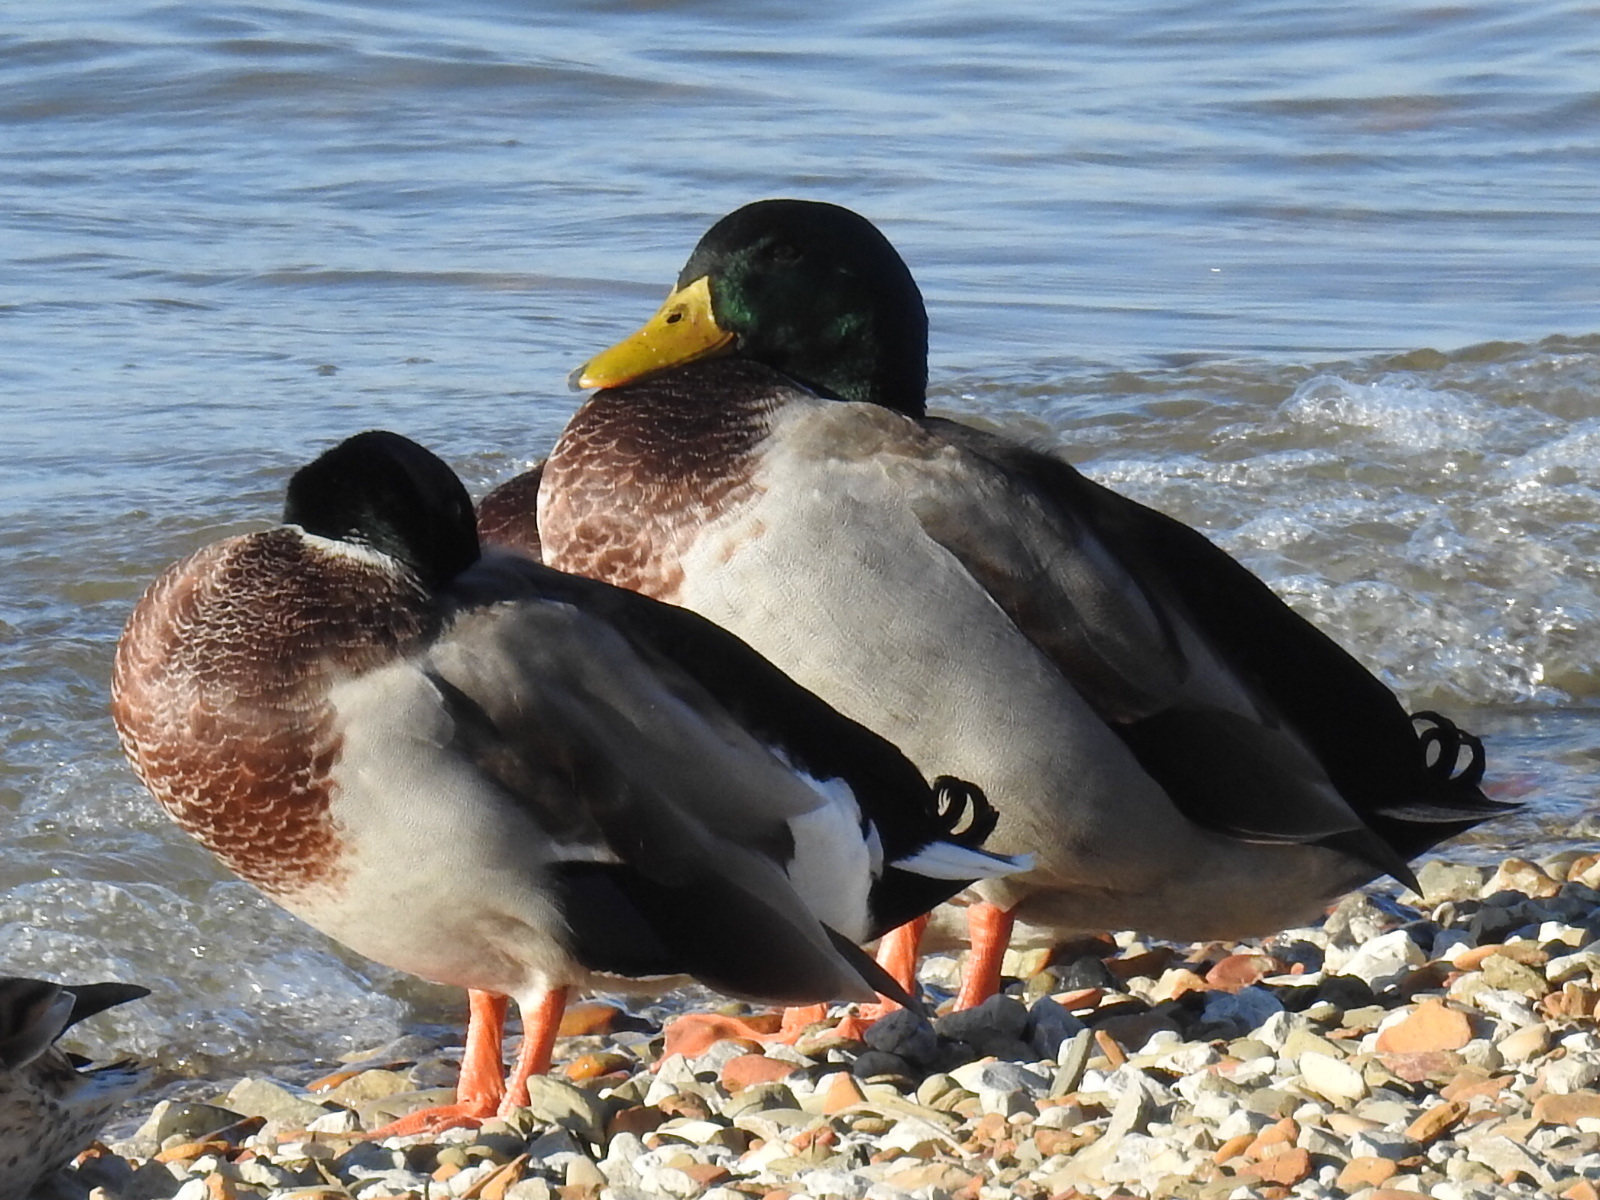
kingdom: Animalia
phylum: Chordata
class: Aves
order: Anseriformes
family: Anatidae
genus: Anas
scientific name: Anas platyrhynchos
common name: Mallard
